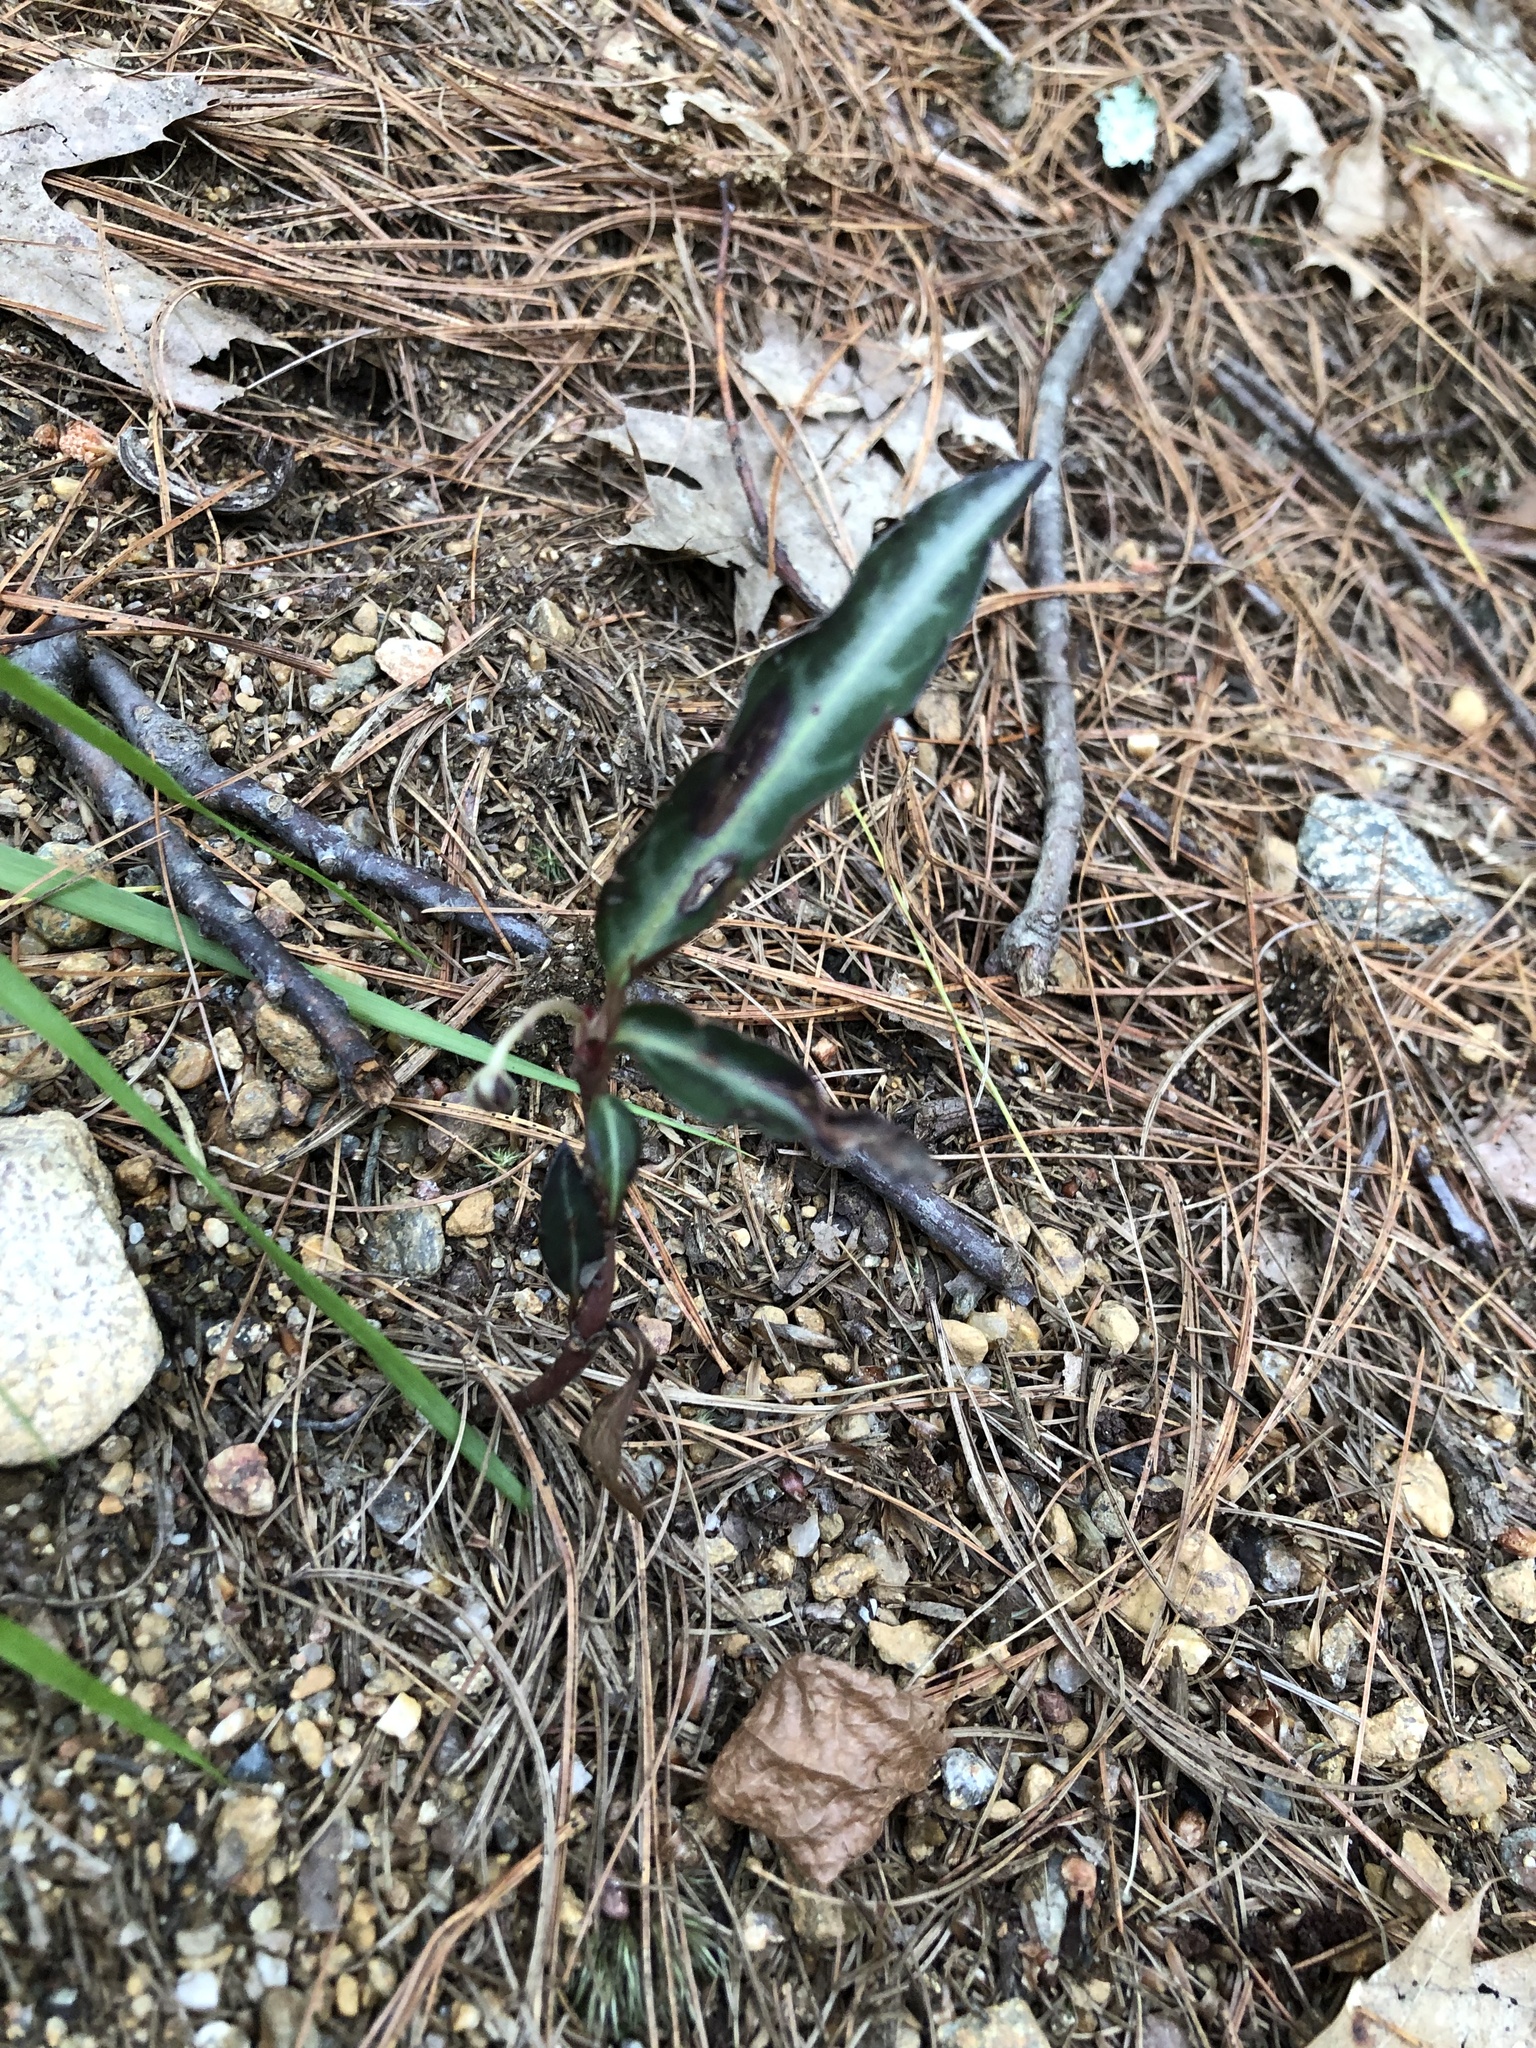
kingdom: Plantae
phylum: Tracheophyta
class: Magnoliopsida
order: Ericales
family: Ericaceae
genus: Chimaphila
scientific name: Chimaphila maculata
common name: Spotted pipsissewa
